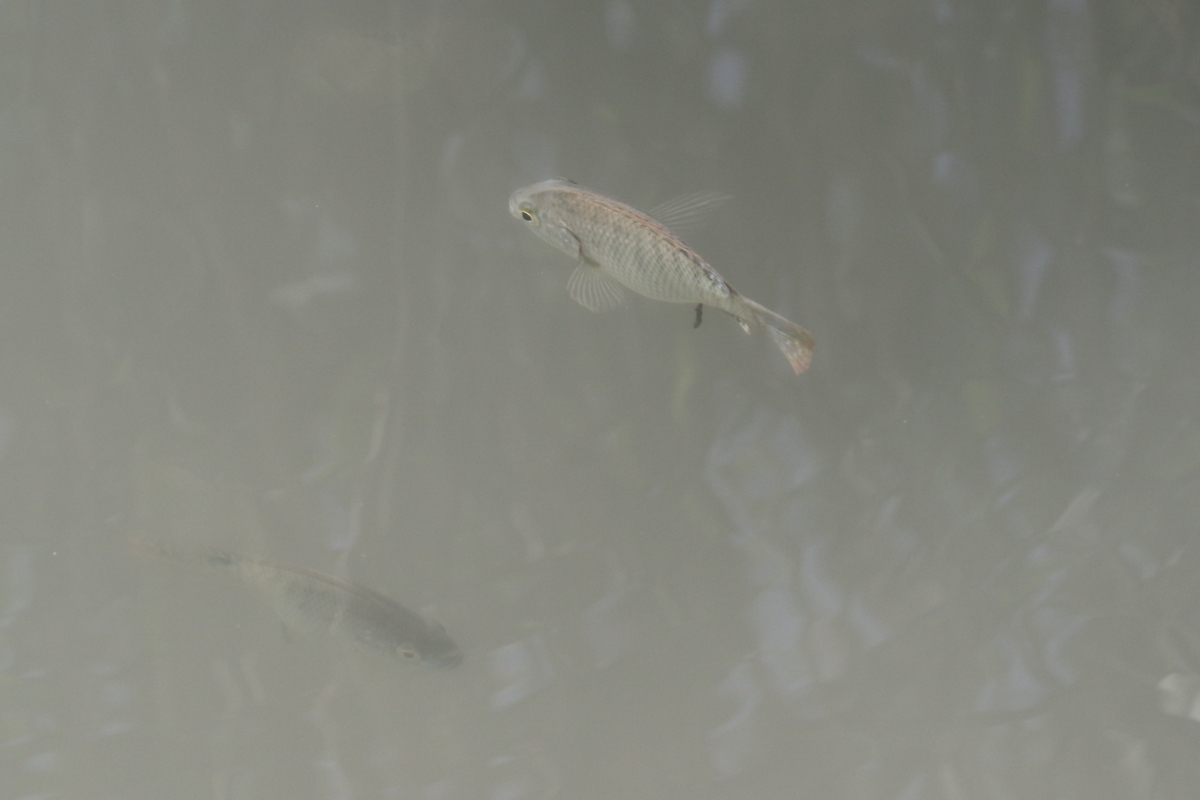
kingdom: Animalia
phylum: Chordata
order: Perciformes
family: Cichlidae
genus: Oreochromis
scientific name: Oreochromis aureus
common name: Blue tilapia
